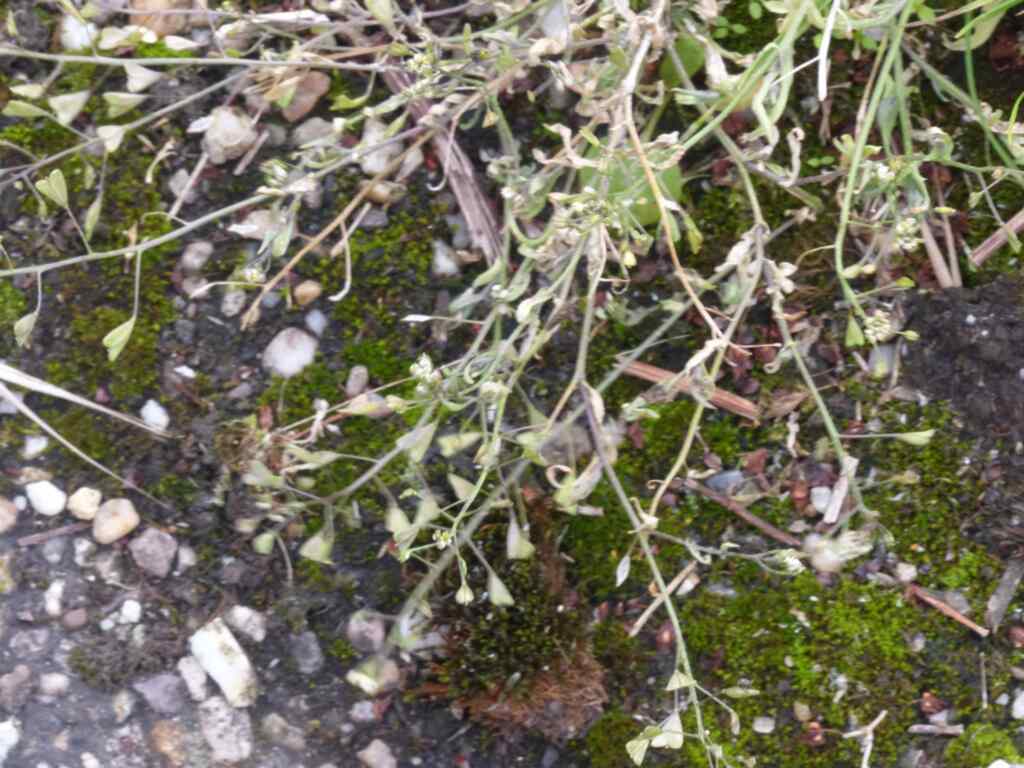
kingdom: Plantae
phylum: Tracheophyta
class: Magnoliopsida
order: Brassicales
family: Brassicaceae
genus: Capsella
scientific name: Capsella bursa-pastoris
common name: Shepherd's purse
